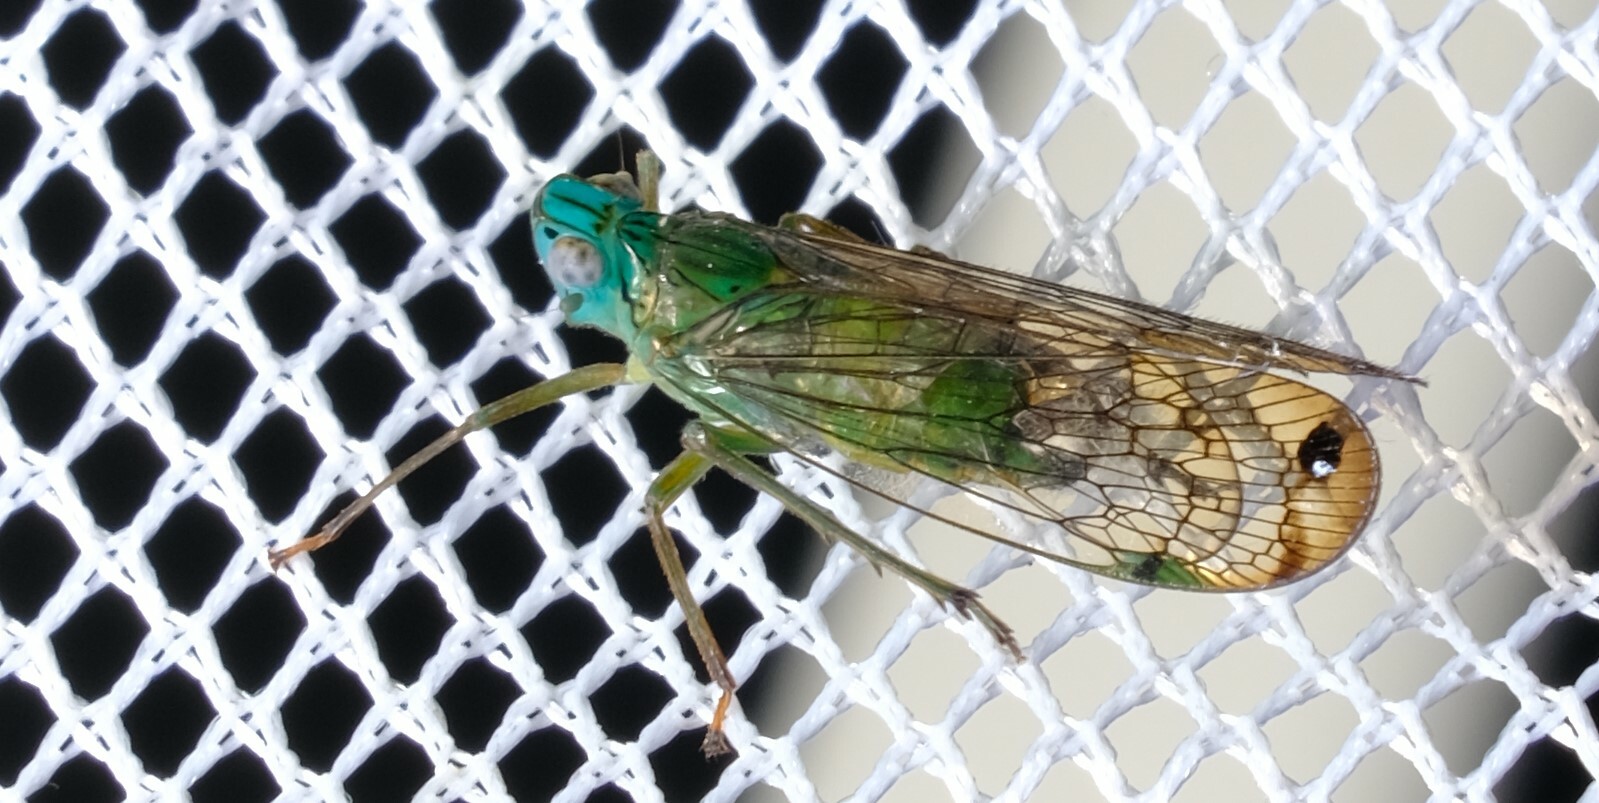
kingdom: Animalia
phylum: Arthropoda
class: Insecta
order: Hemiptera
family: Lophopidae
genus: Magia
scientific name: Magia subocellata
